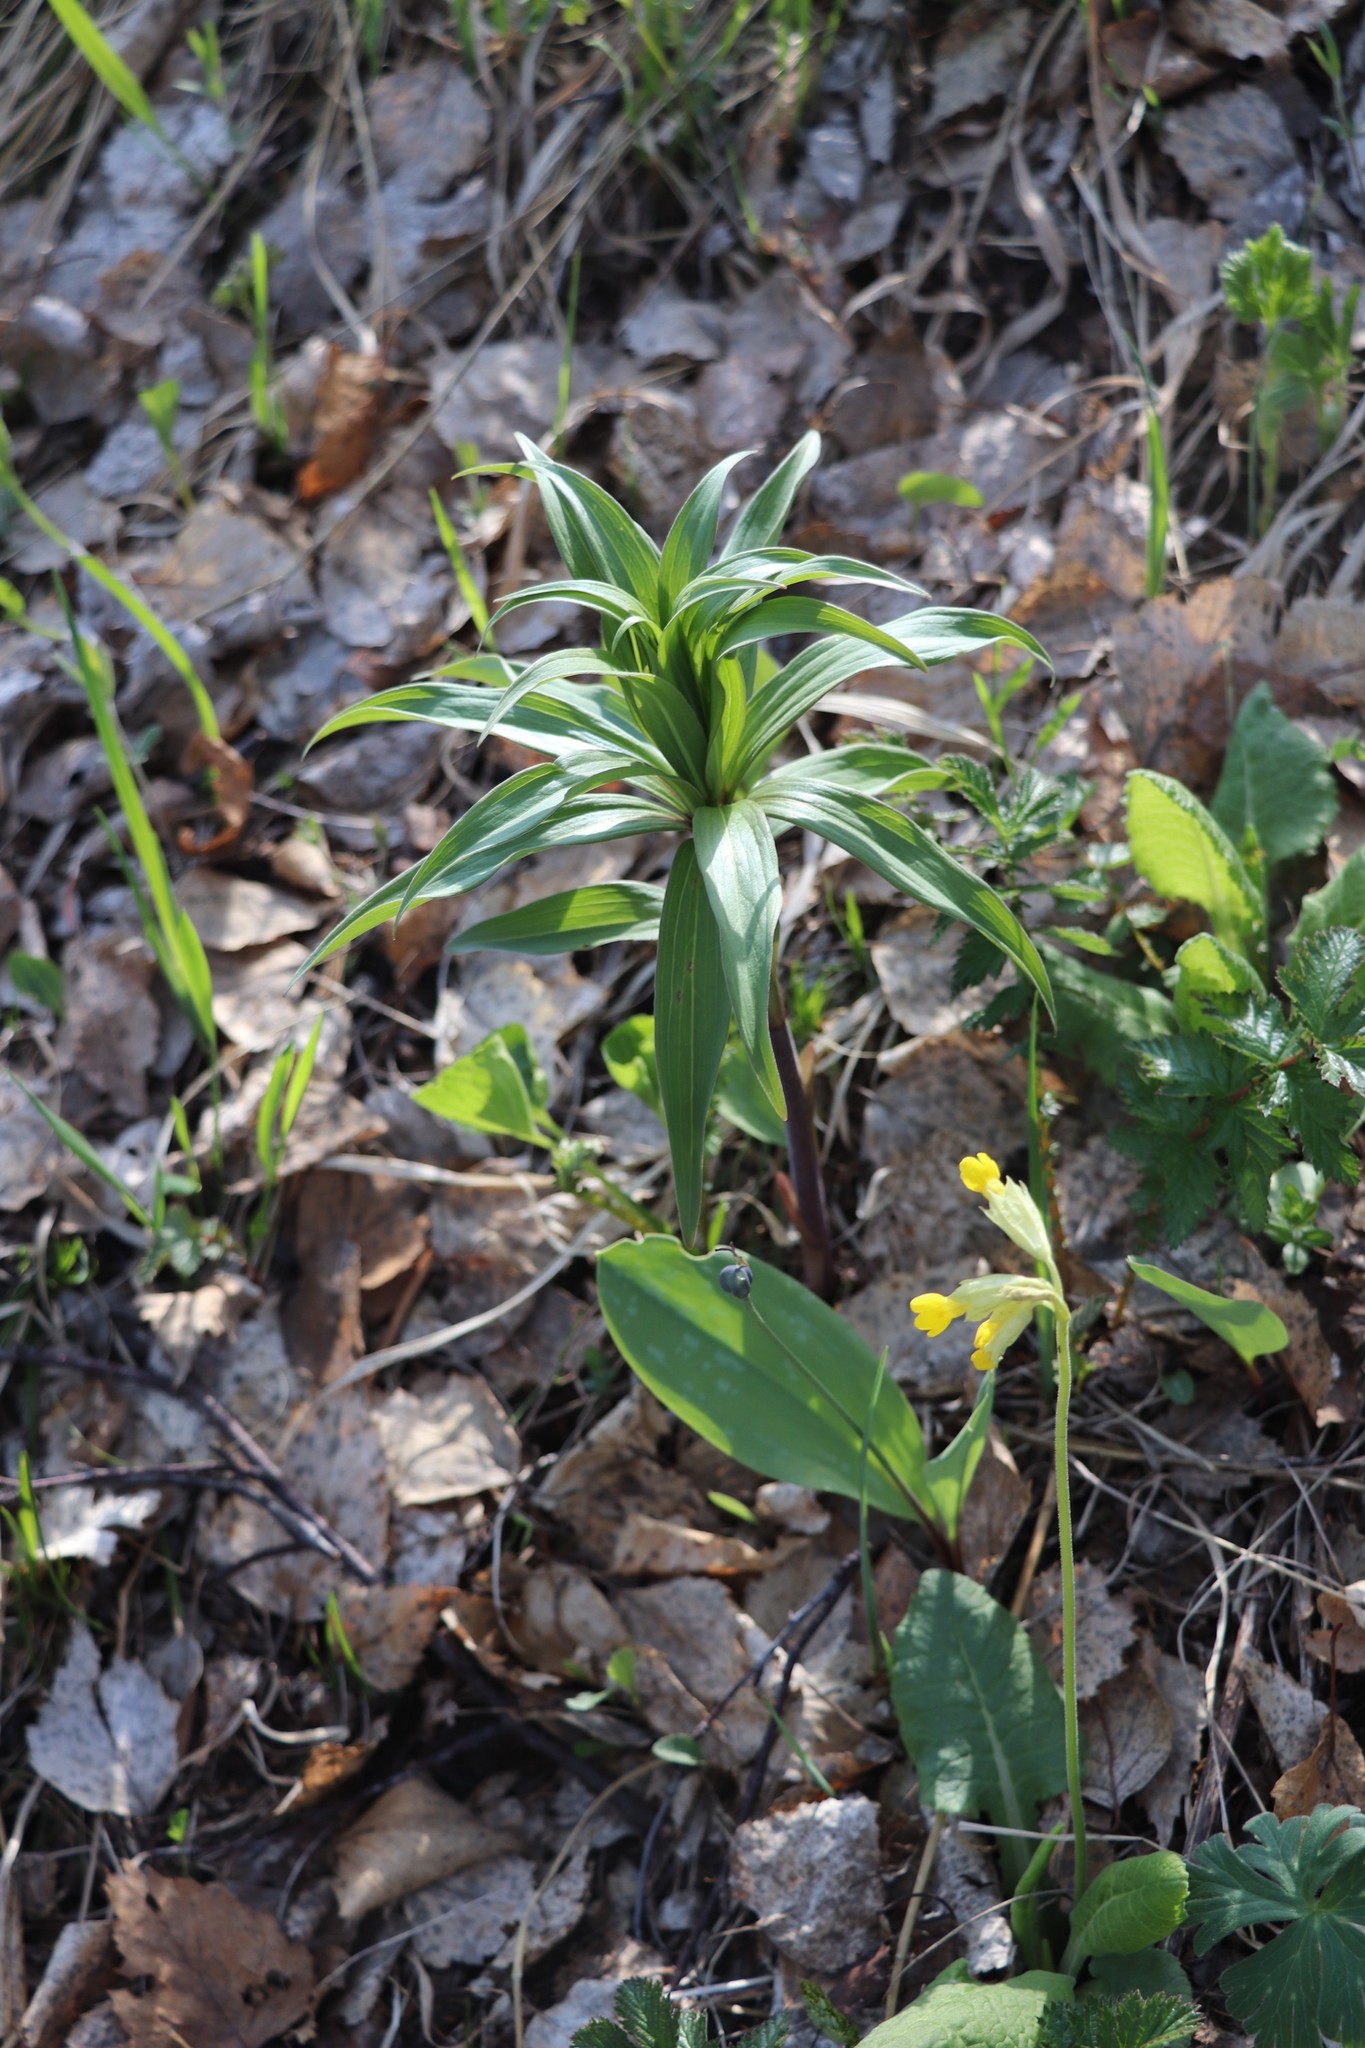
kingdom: Plantae
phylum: Tracheophyta
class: Liliopsida
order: Liliales
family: Liliaceae
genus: Lilium
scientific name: Lilium martagon
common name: Martagon lily
